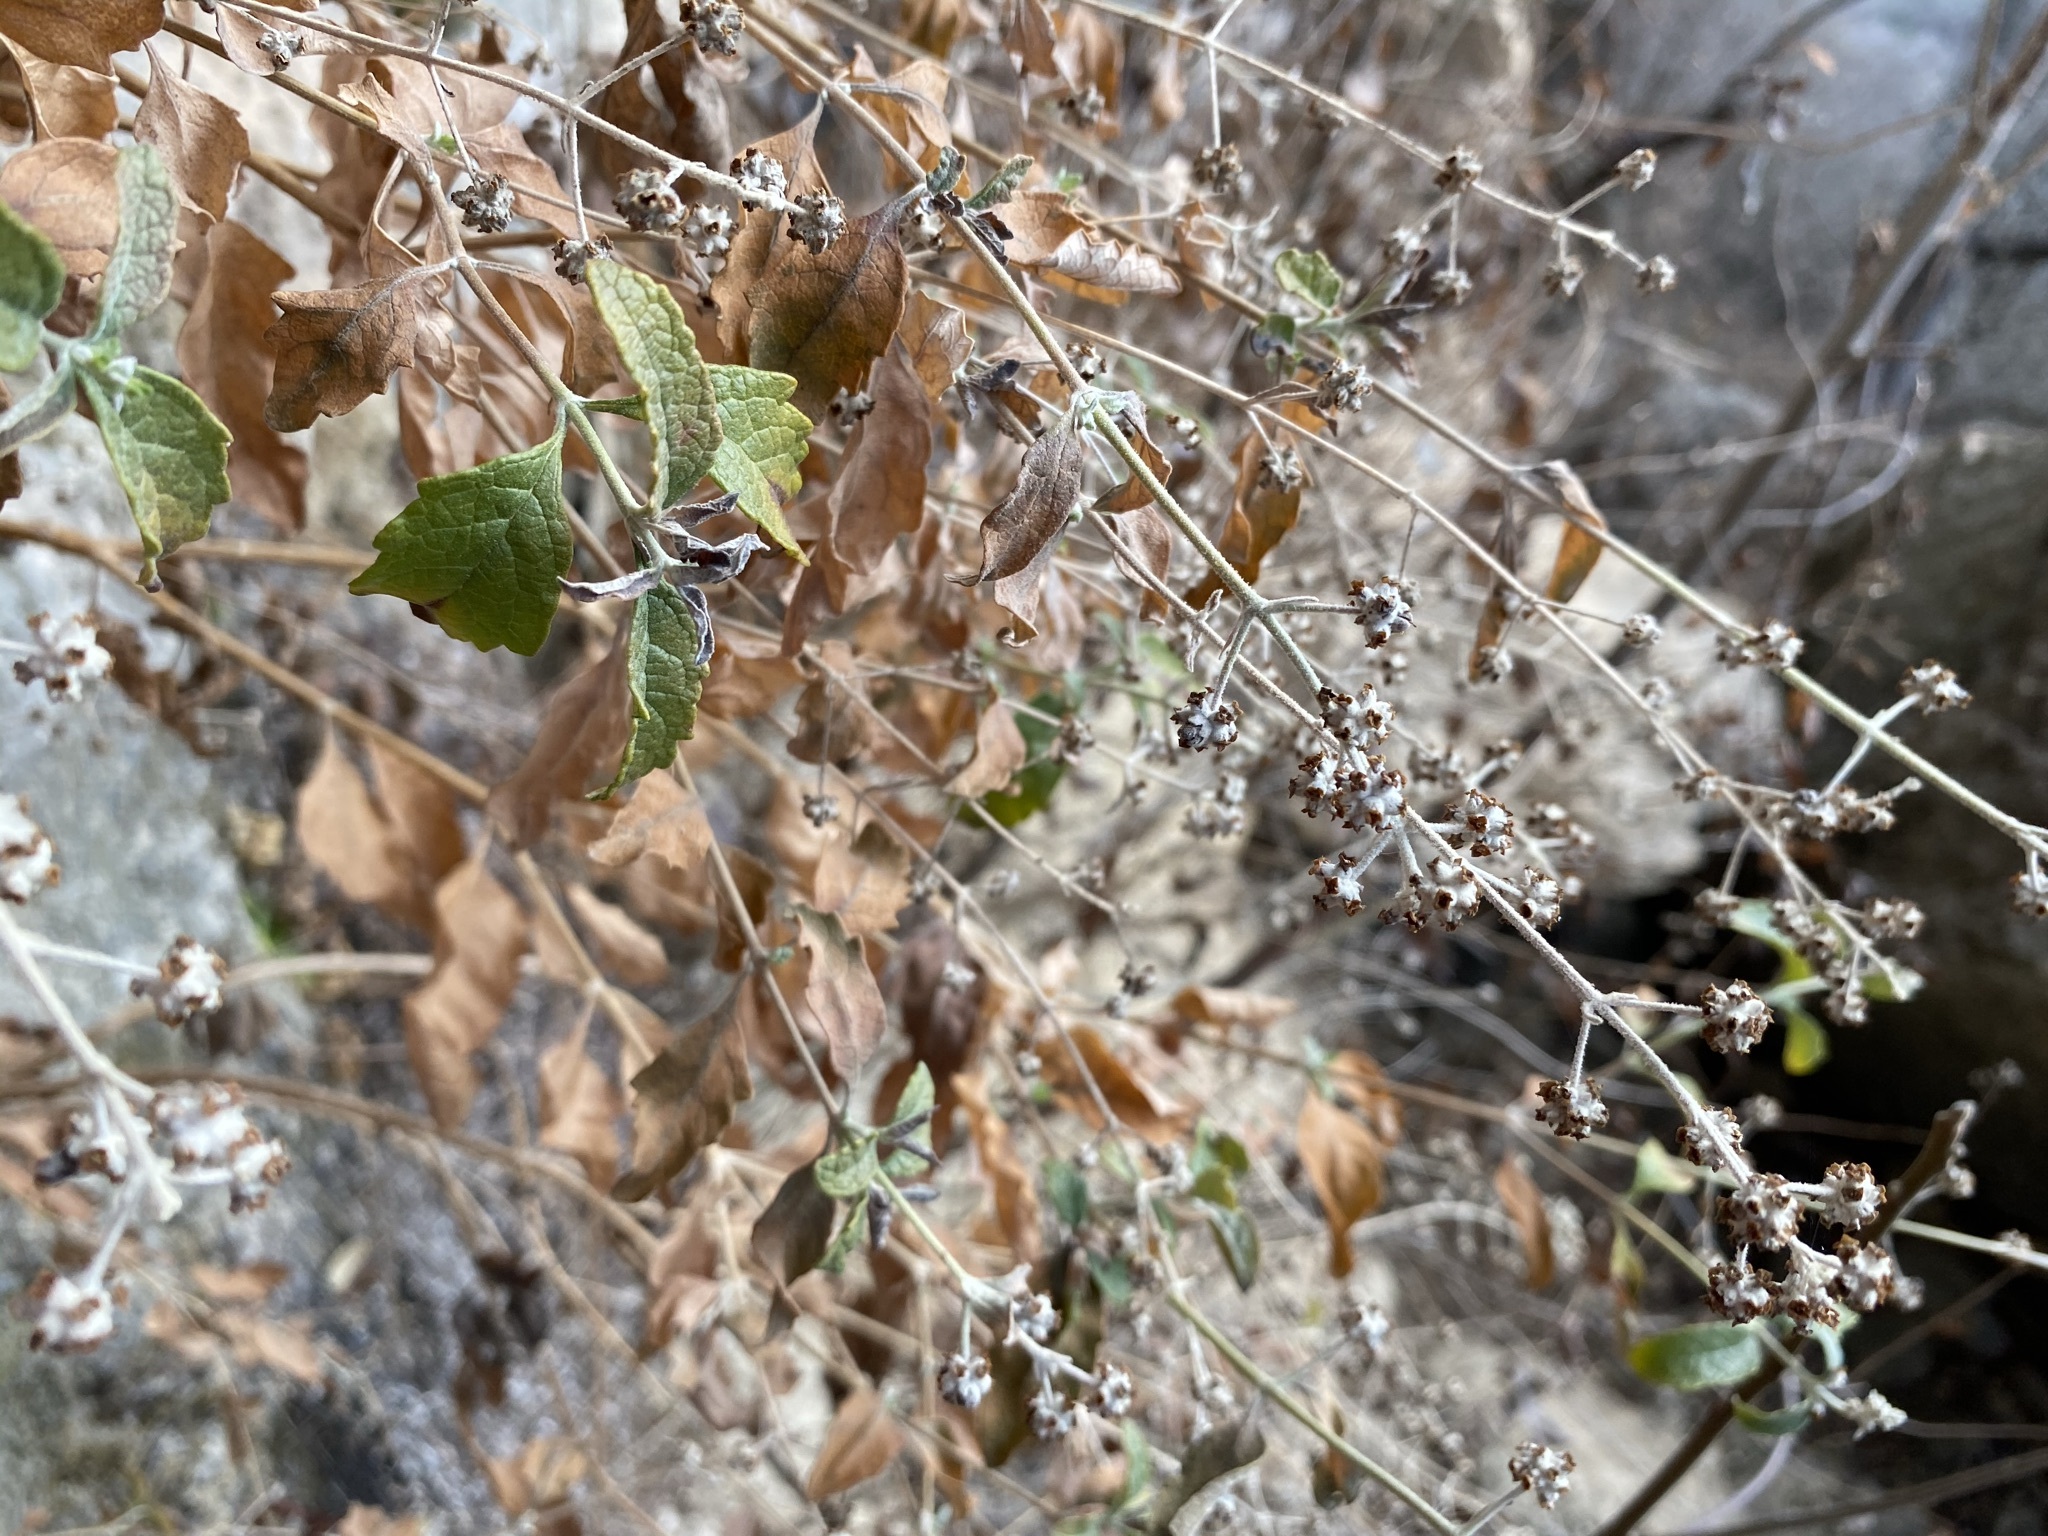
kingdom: Plantae
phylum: Tracheophyta
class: Magnoliopsida
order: Lamiales
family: Scrophulariaceae
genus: Buddleja
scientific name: Buddleja racemosa
